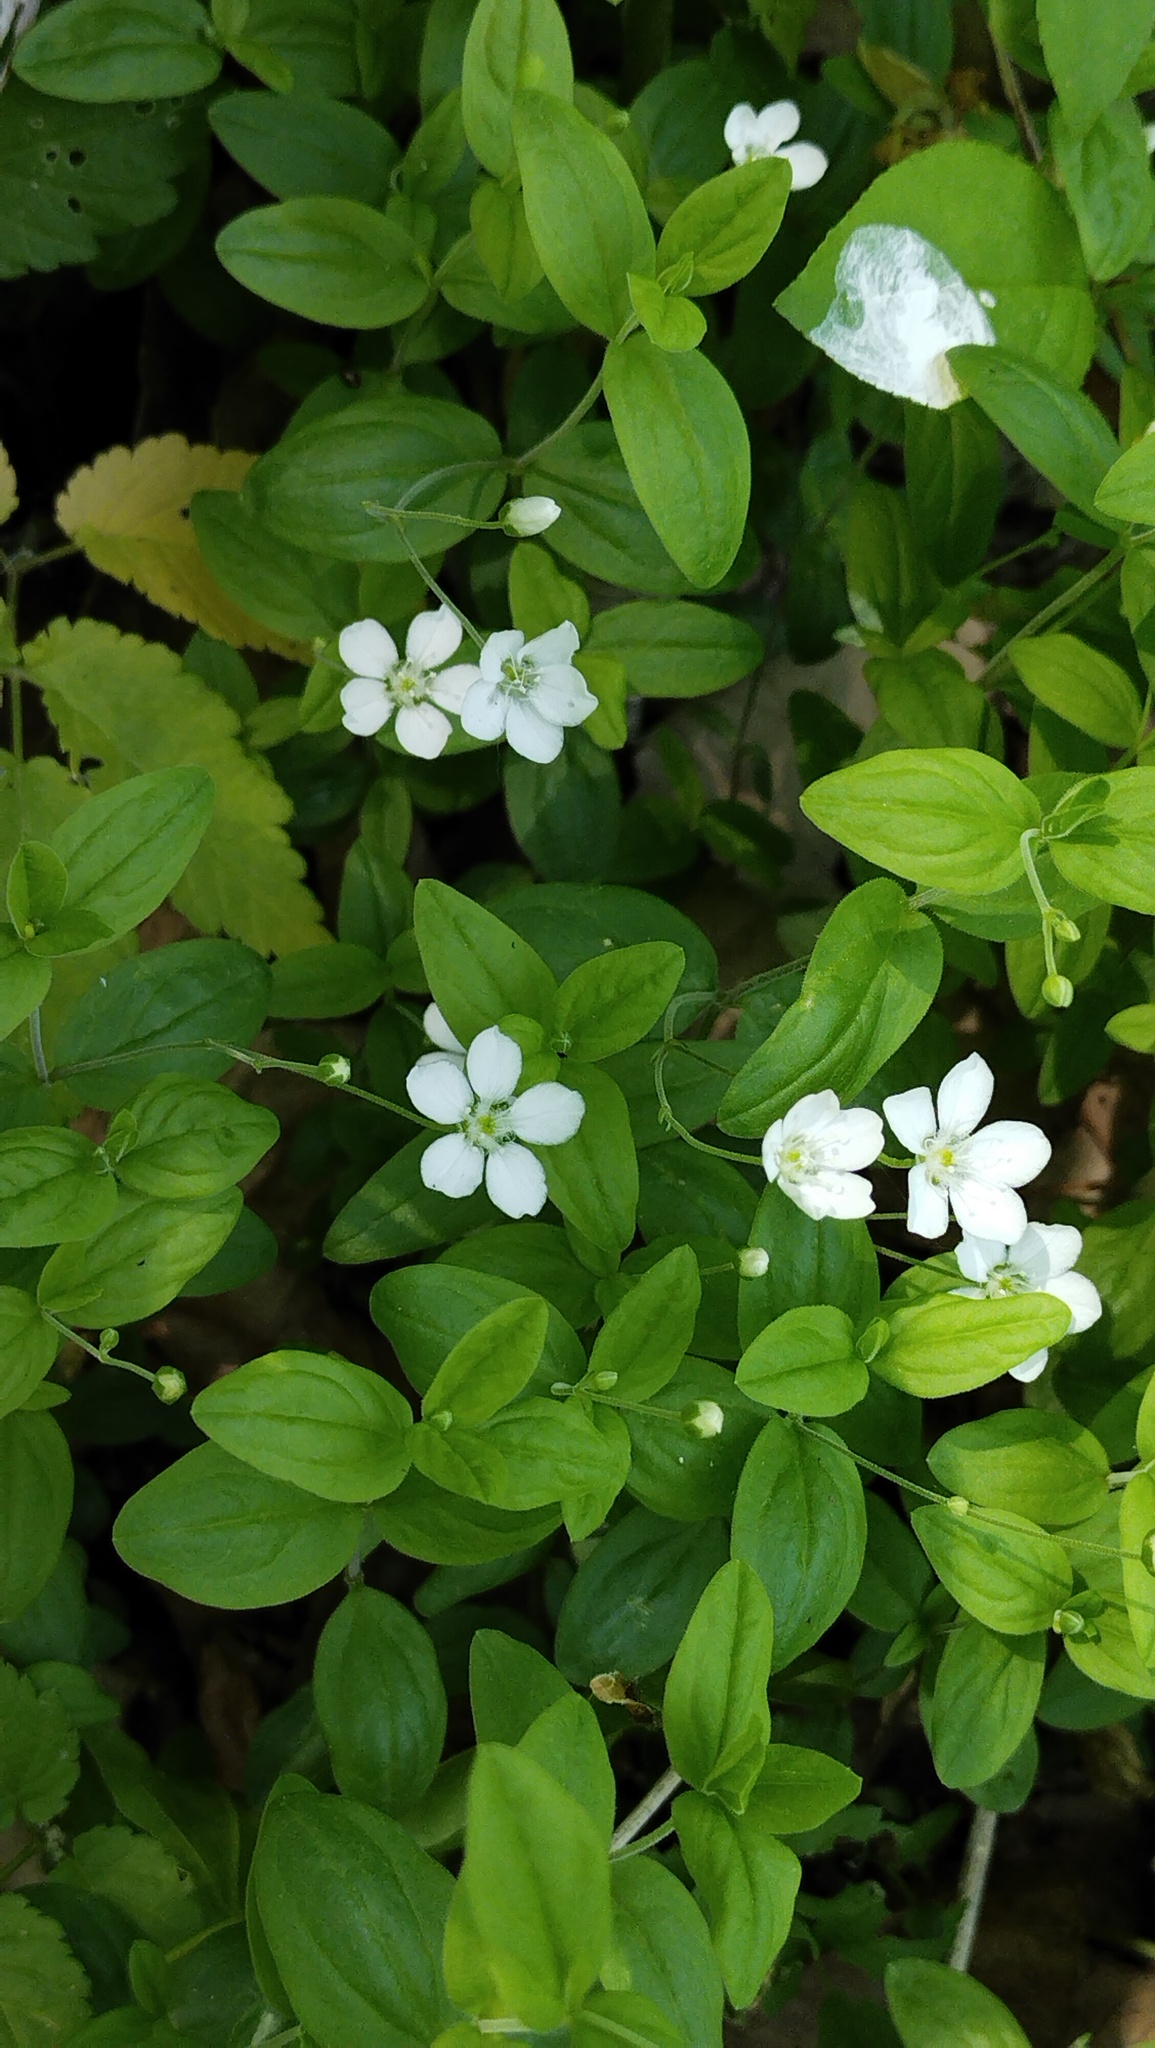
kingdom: Plantae
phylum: Tracheophyta
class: Magnoliopsida
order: Caryophyllales
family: Caryophyllaceae
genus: Moehringia
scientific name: Moehringia lateriflora
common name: Blunt-leaved sandwort
